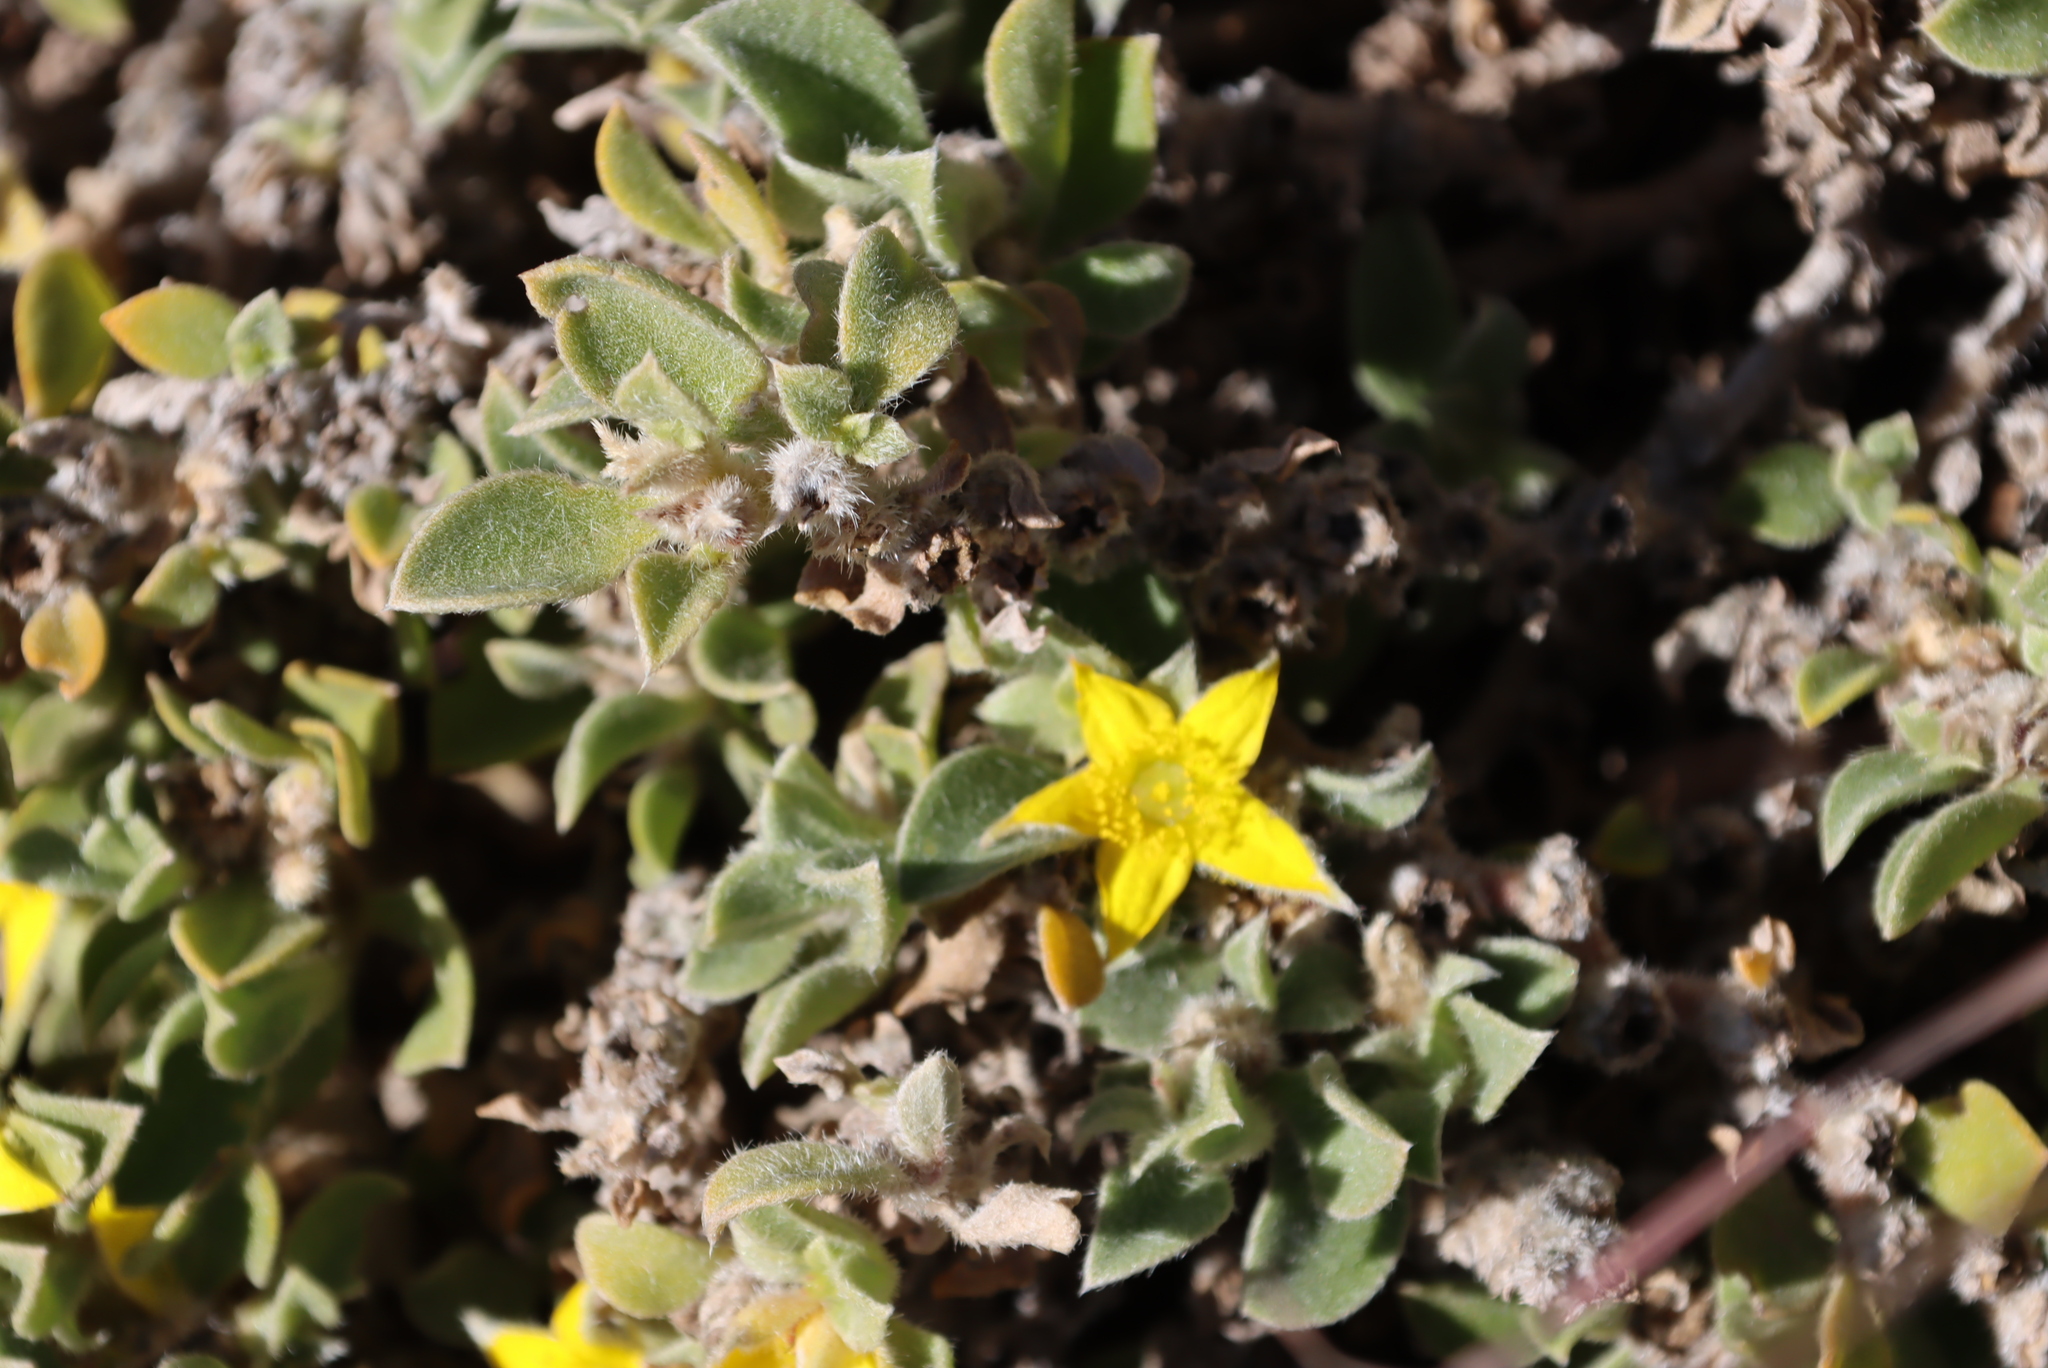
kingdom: Plantae
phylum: Tracheophyta
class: Magnoliopsida
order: Caryophyllales
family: Aizoaceae
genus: Aizoon
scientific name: Aizoon glinoides
